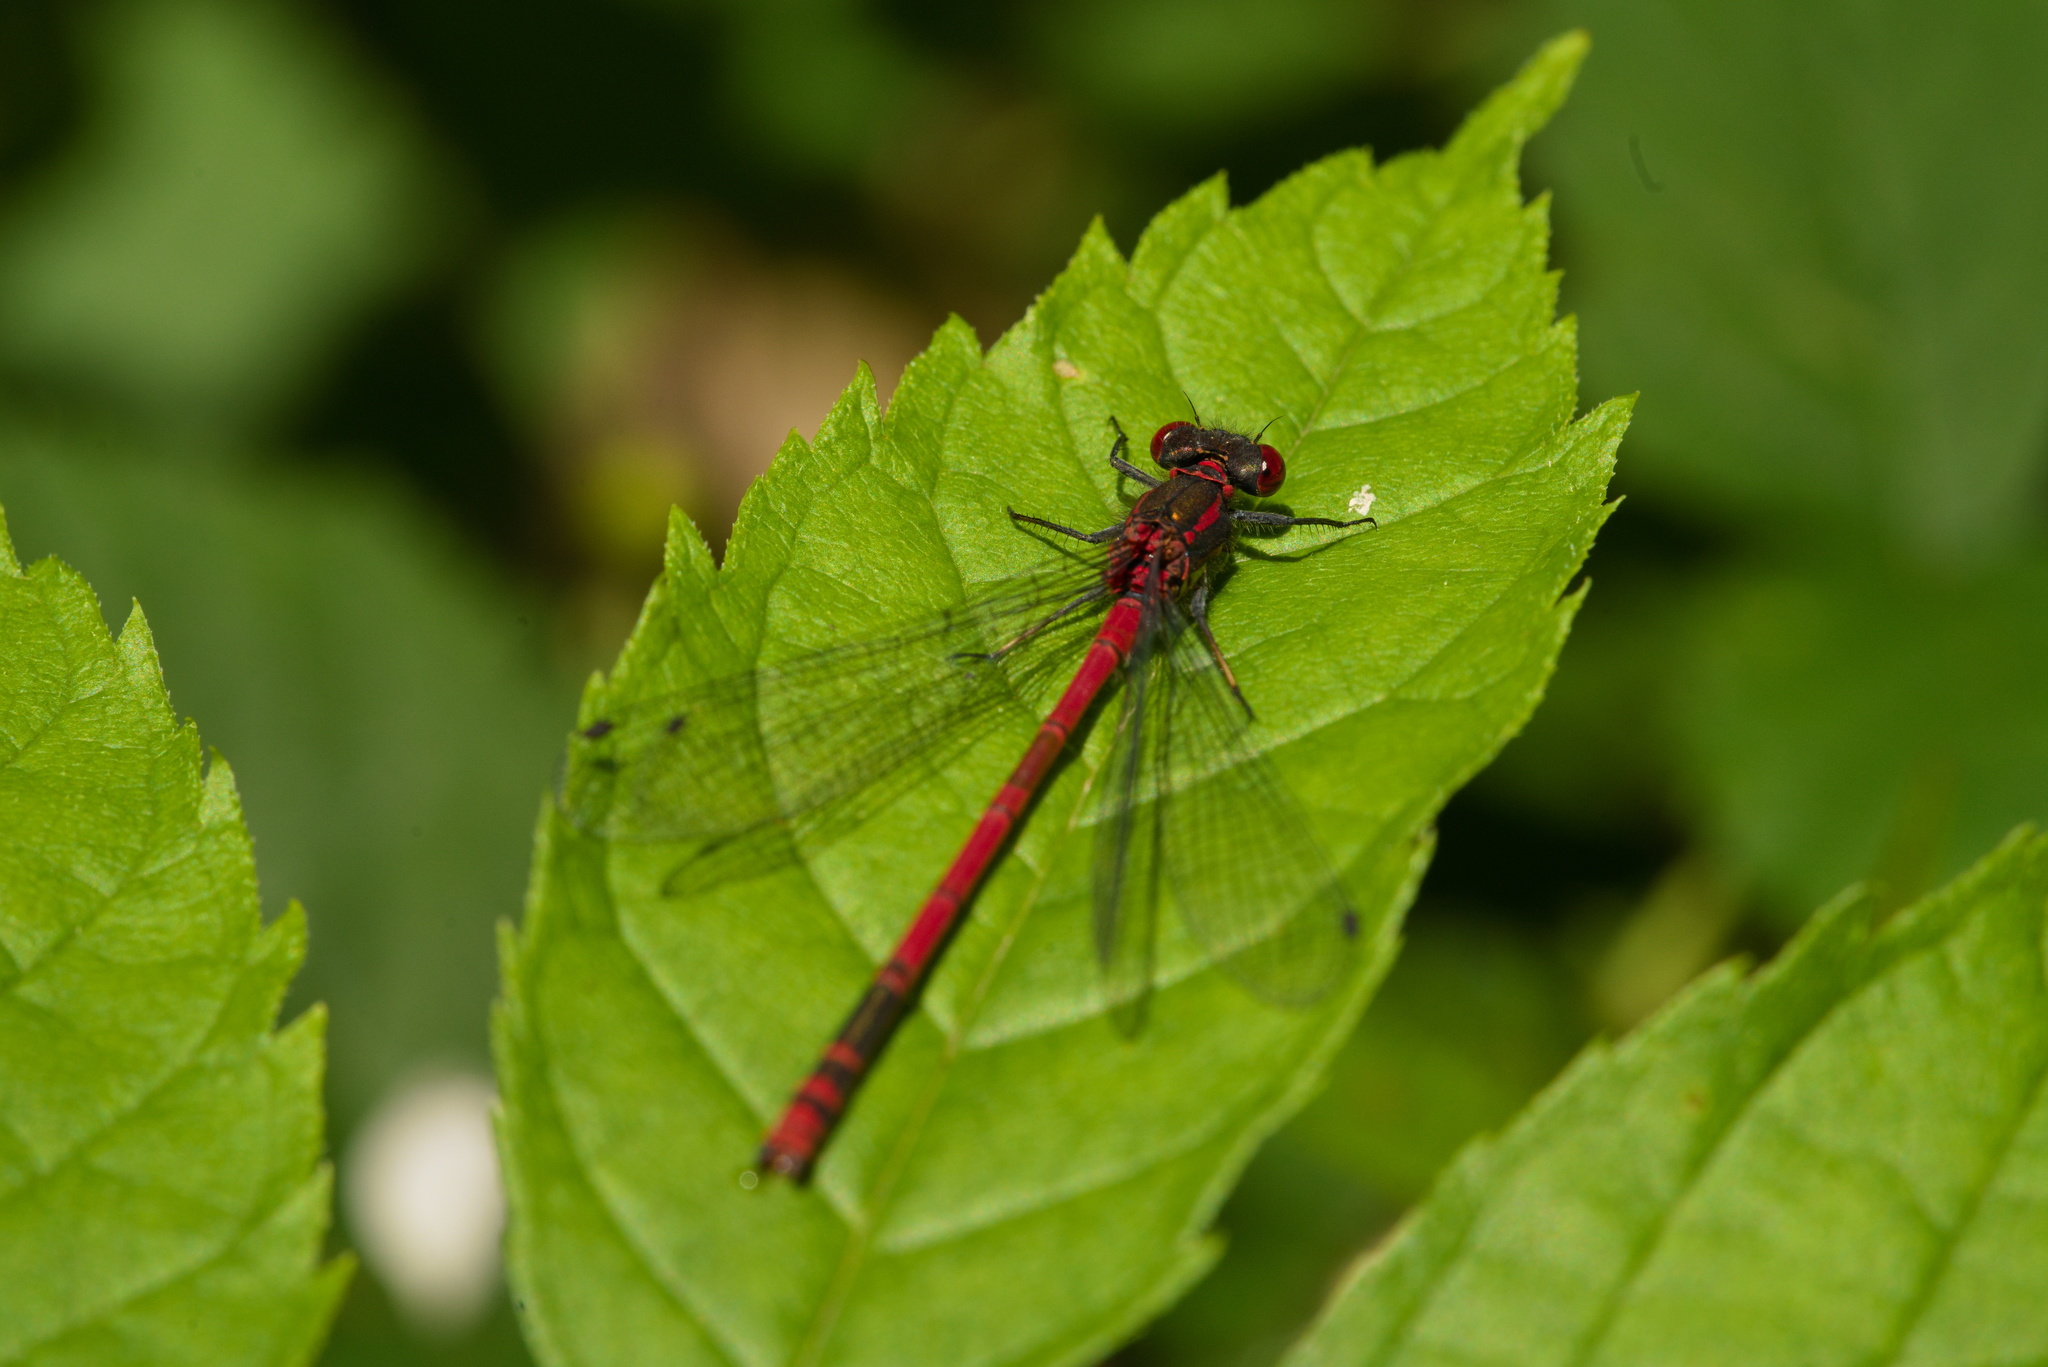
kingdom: Animalia
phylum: Arthropoda
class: Insecta
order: Odonata
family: Coenagrionidae
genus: Pyrrhosoma
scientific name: Pyrrhosoma nymphula
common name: Large red damsel
